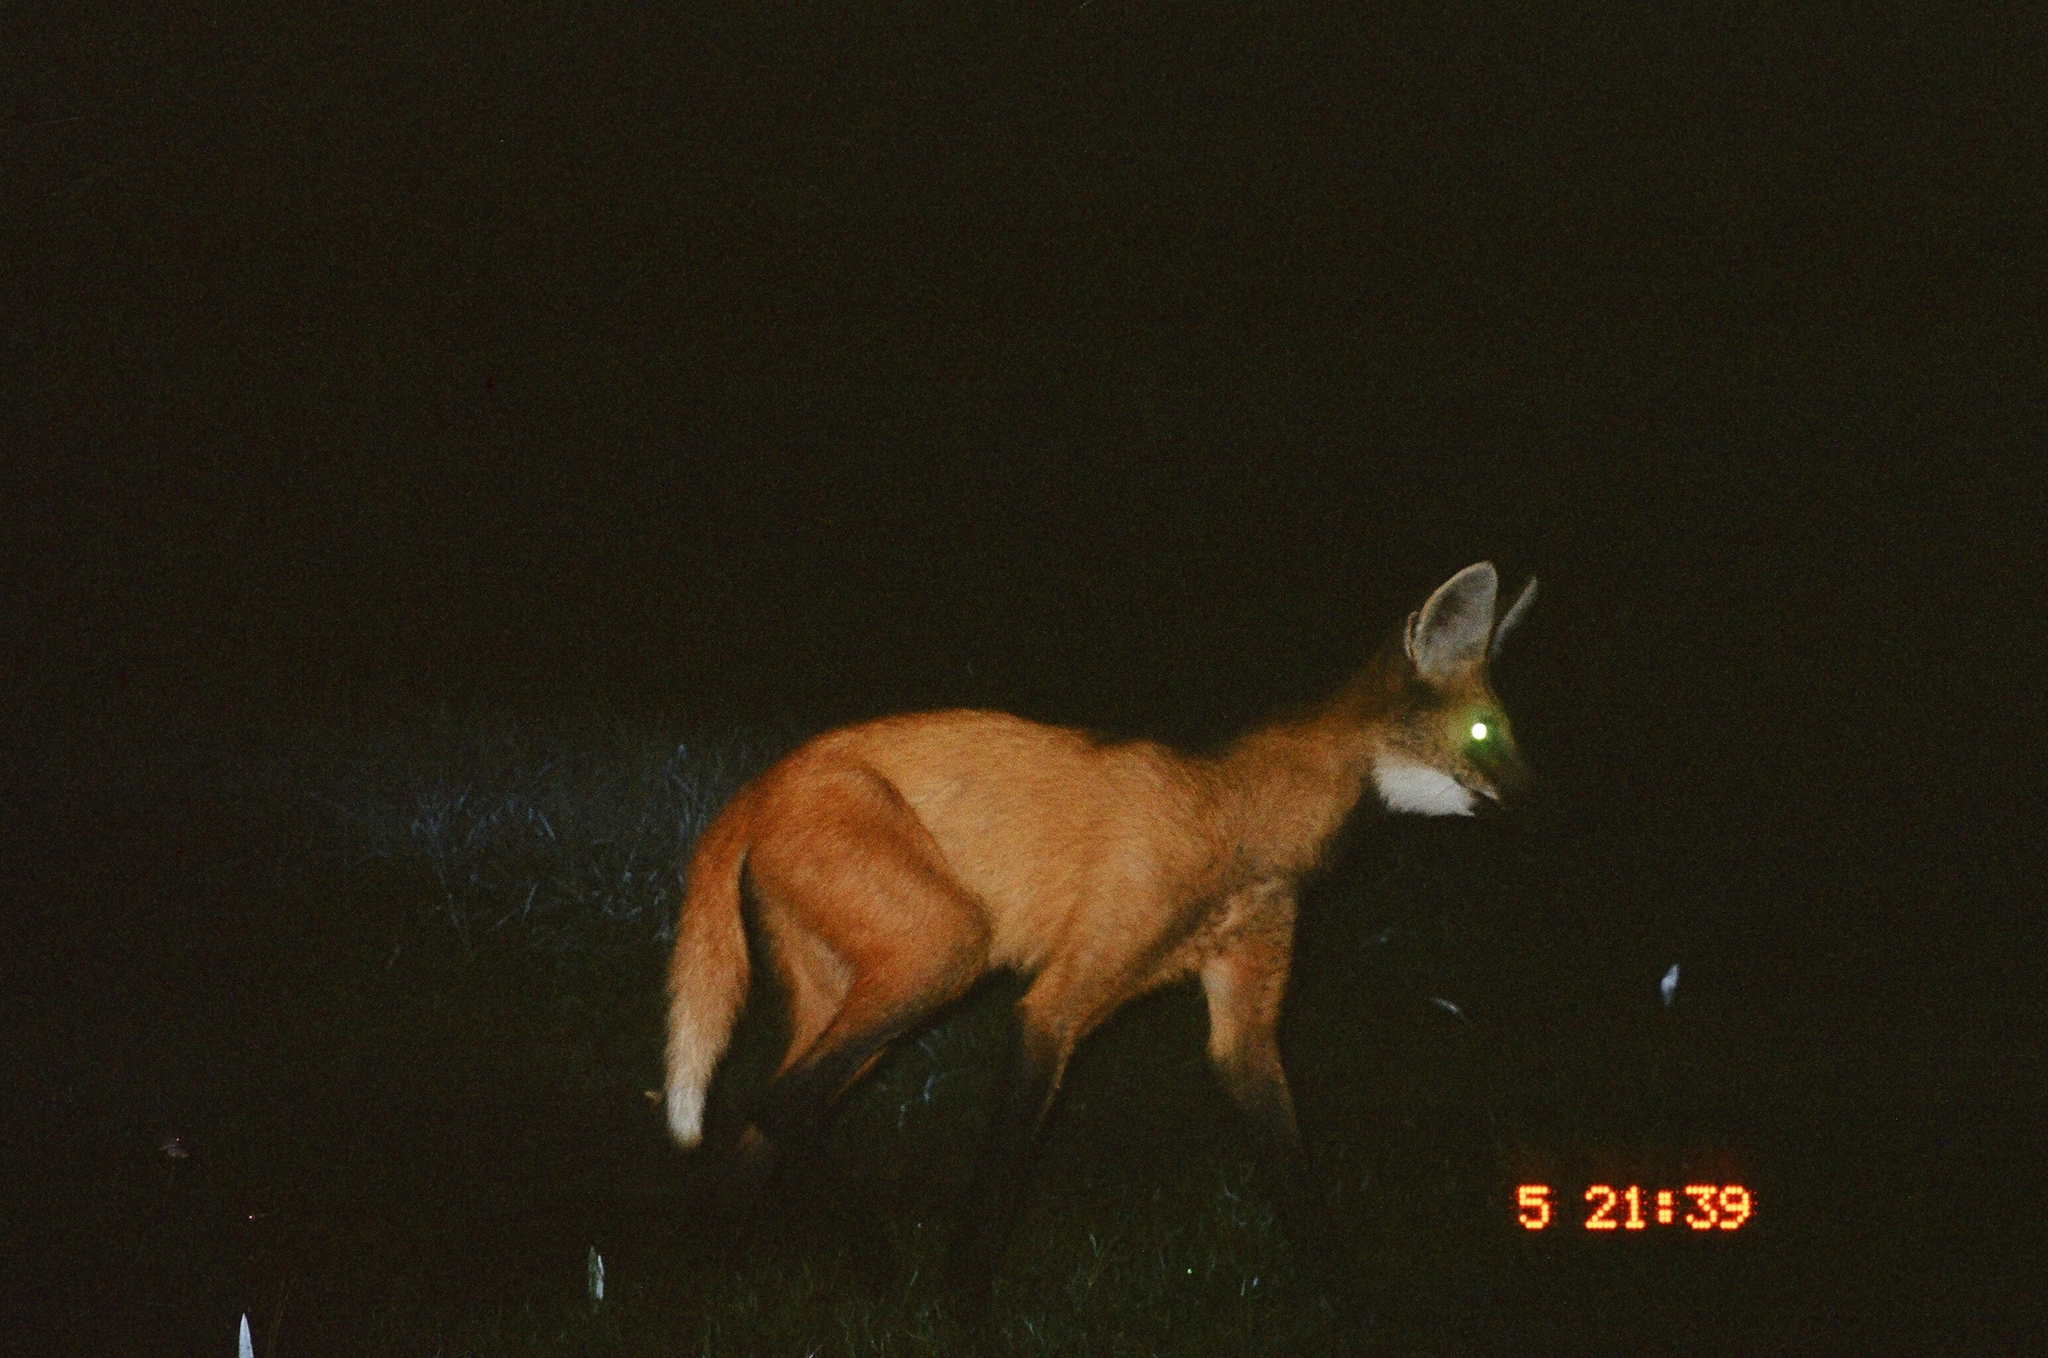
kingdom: Animalia
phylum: Chordata
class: Mammalia
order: Carnivora
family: Canidae
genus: Chrysocyon
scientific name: Chrysocyon brachyurus
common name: Maned wolf
